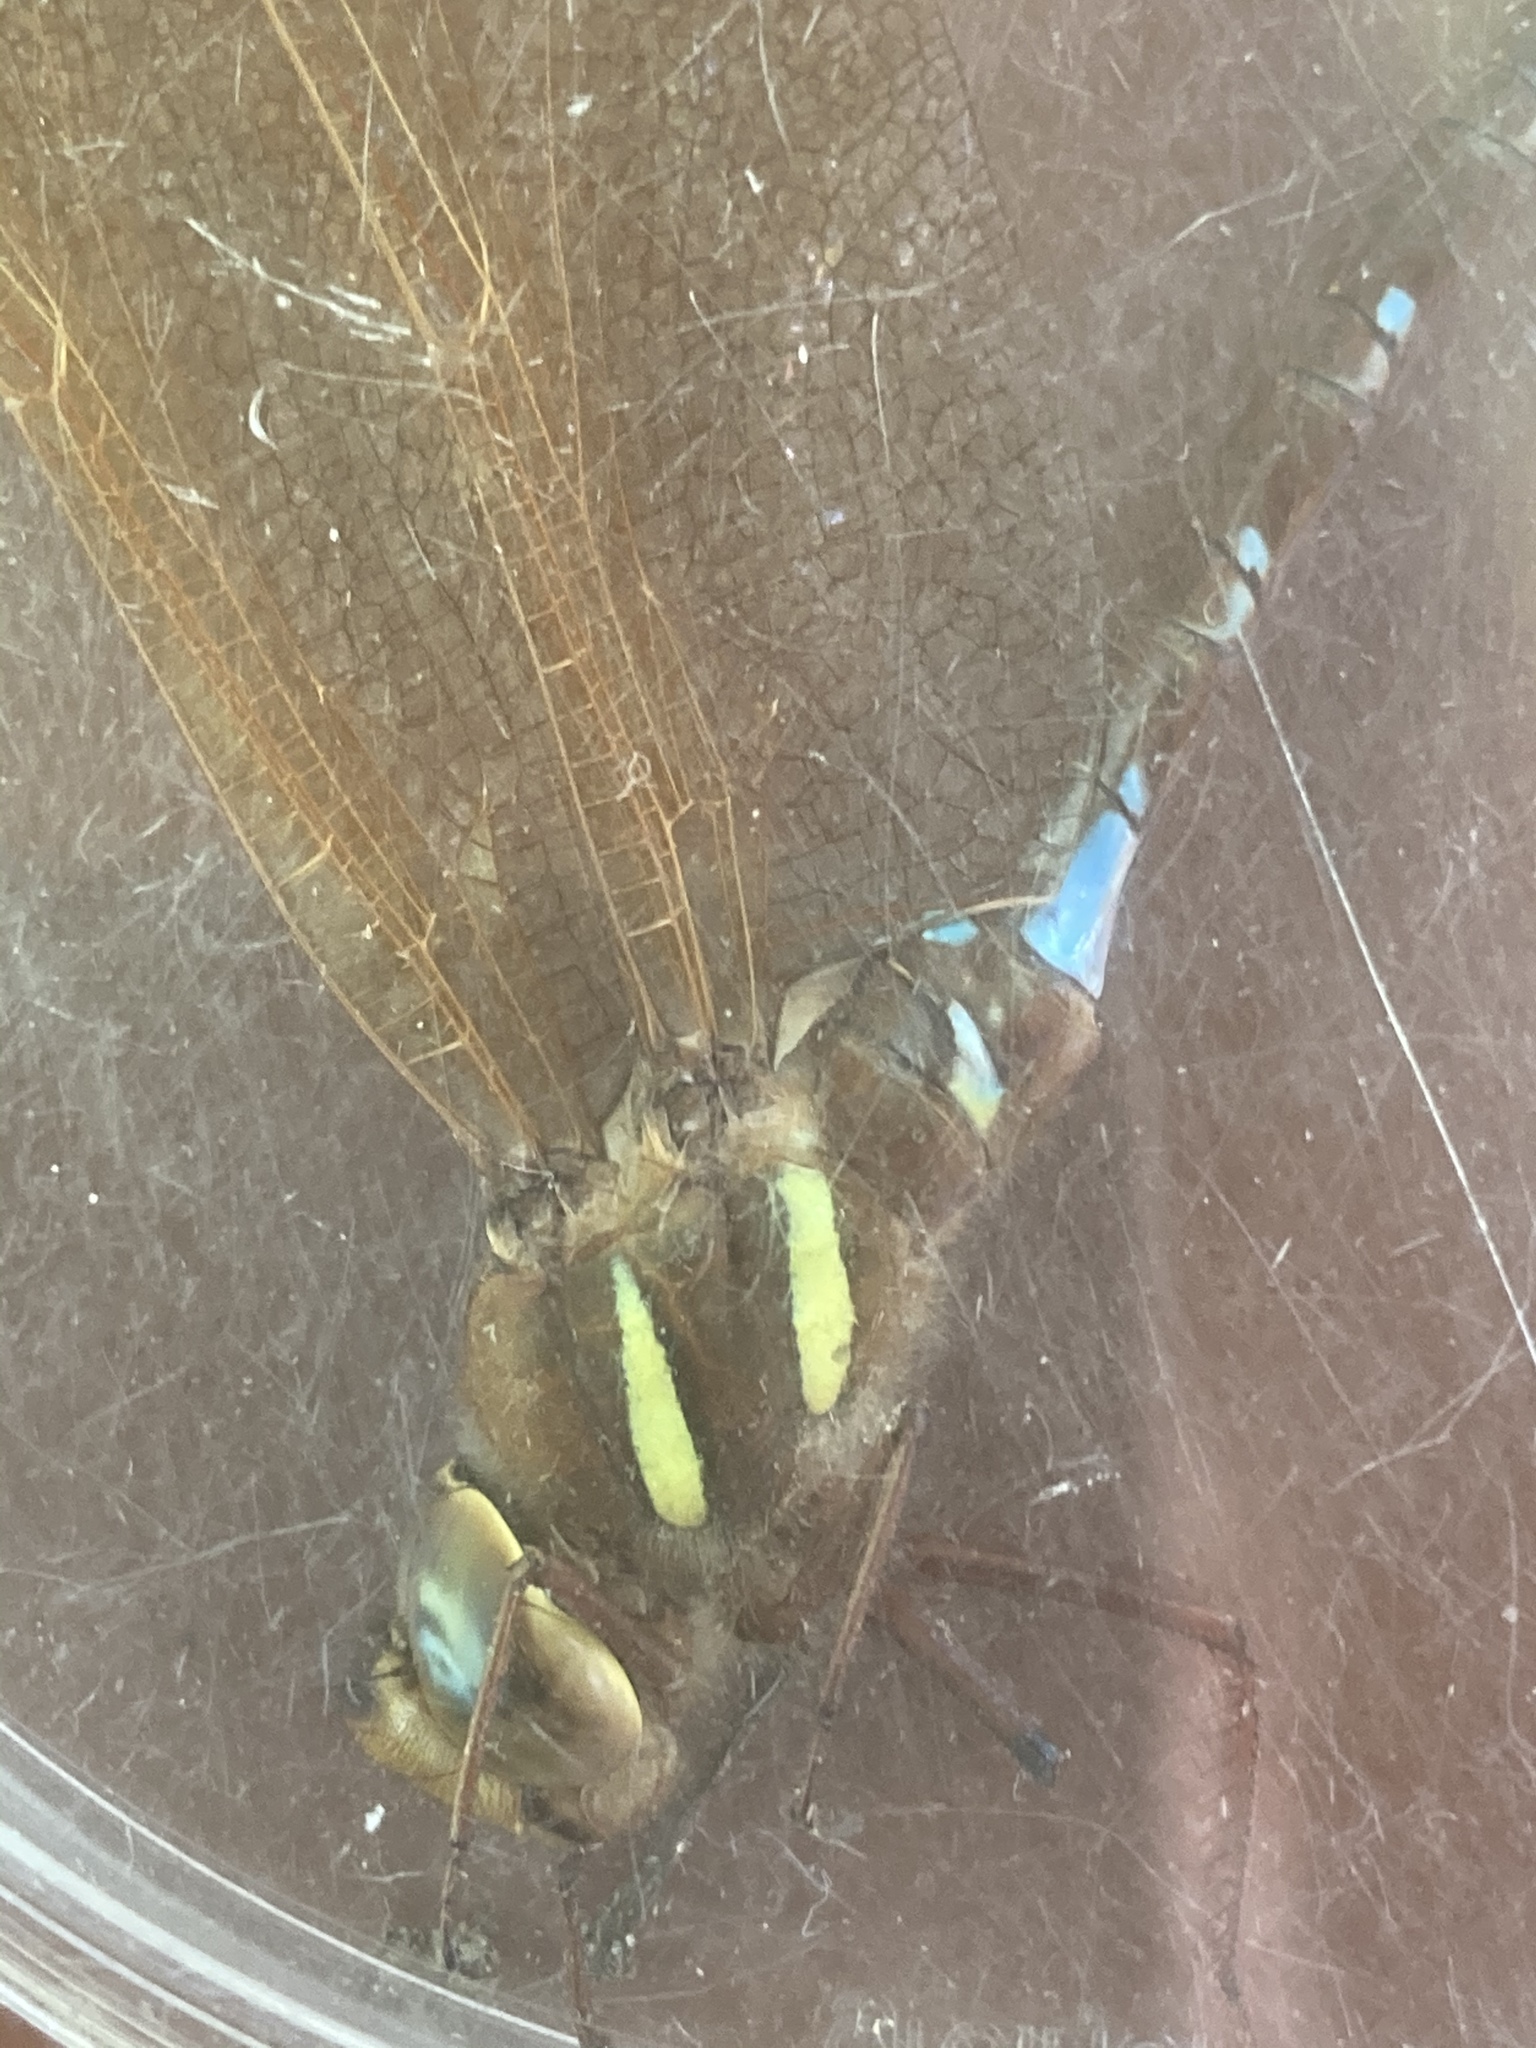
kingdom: Animalia
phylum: Arthropoda
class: Insecta
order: Odonata
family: Aeshnidae
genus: Aeshna
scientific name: Aeshna grandis
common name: Brown hawker
